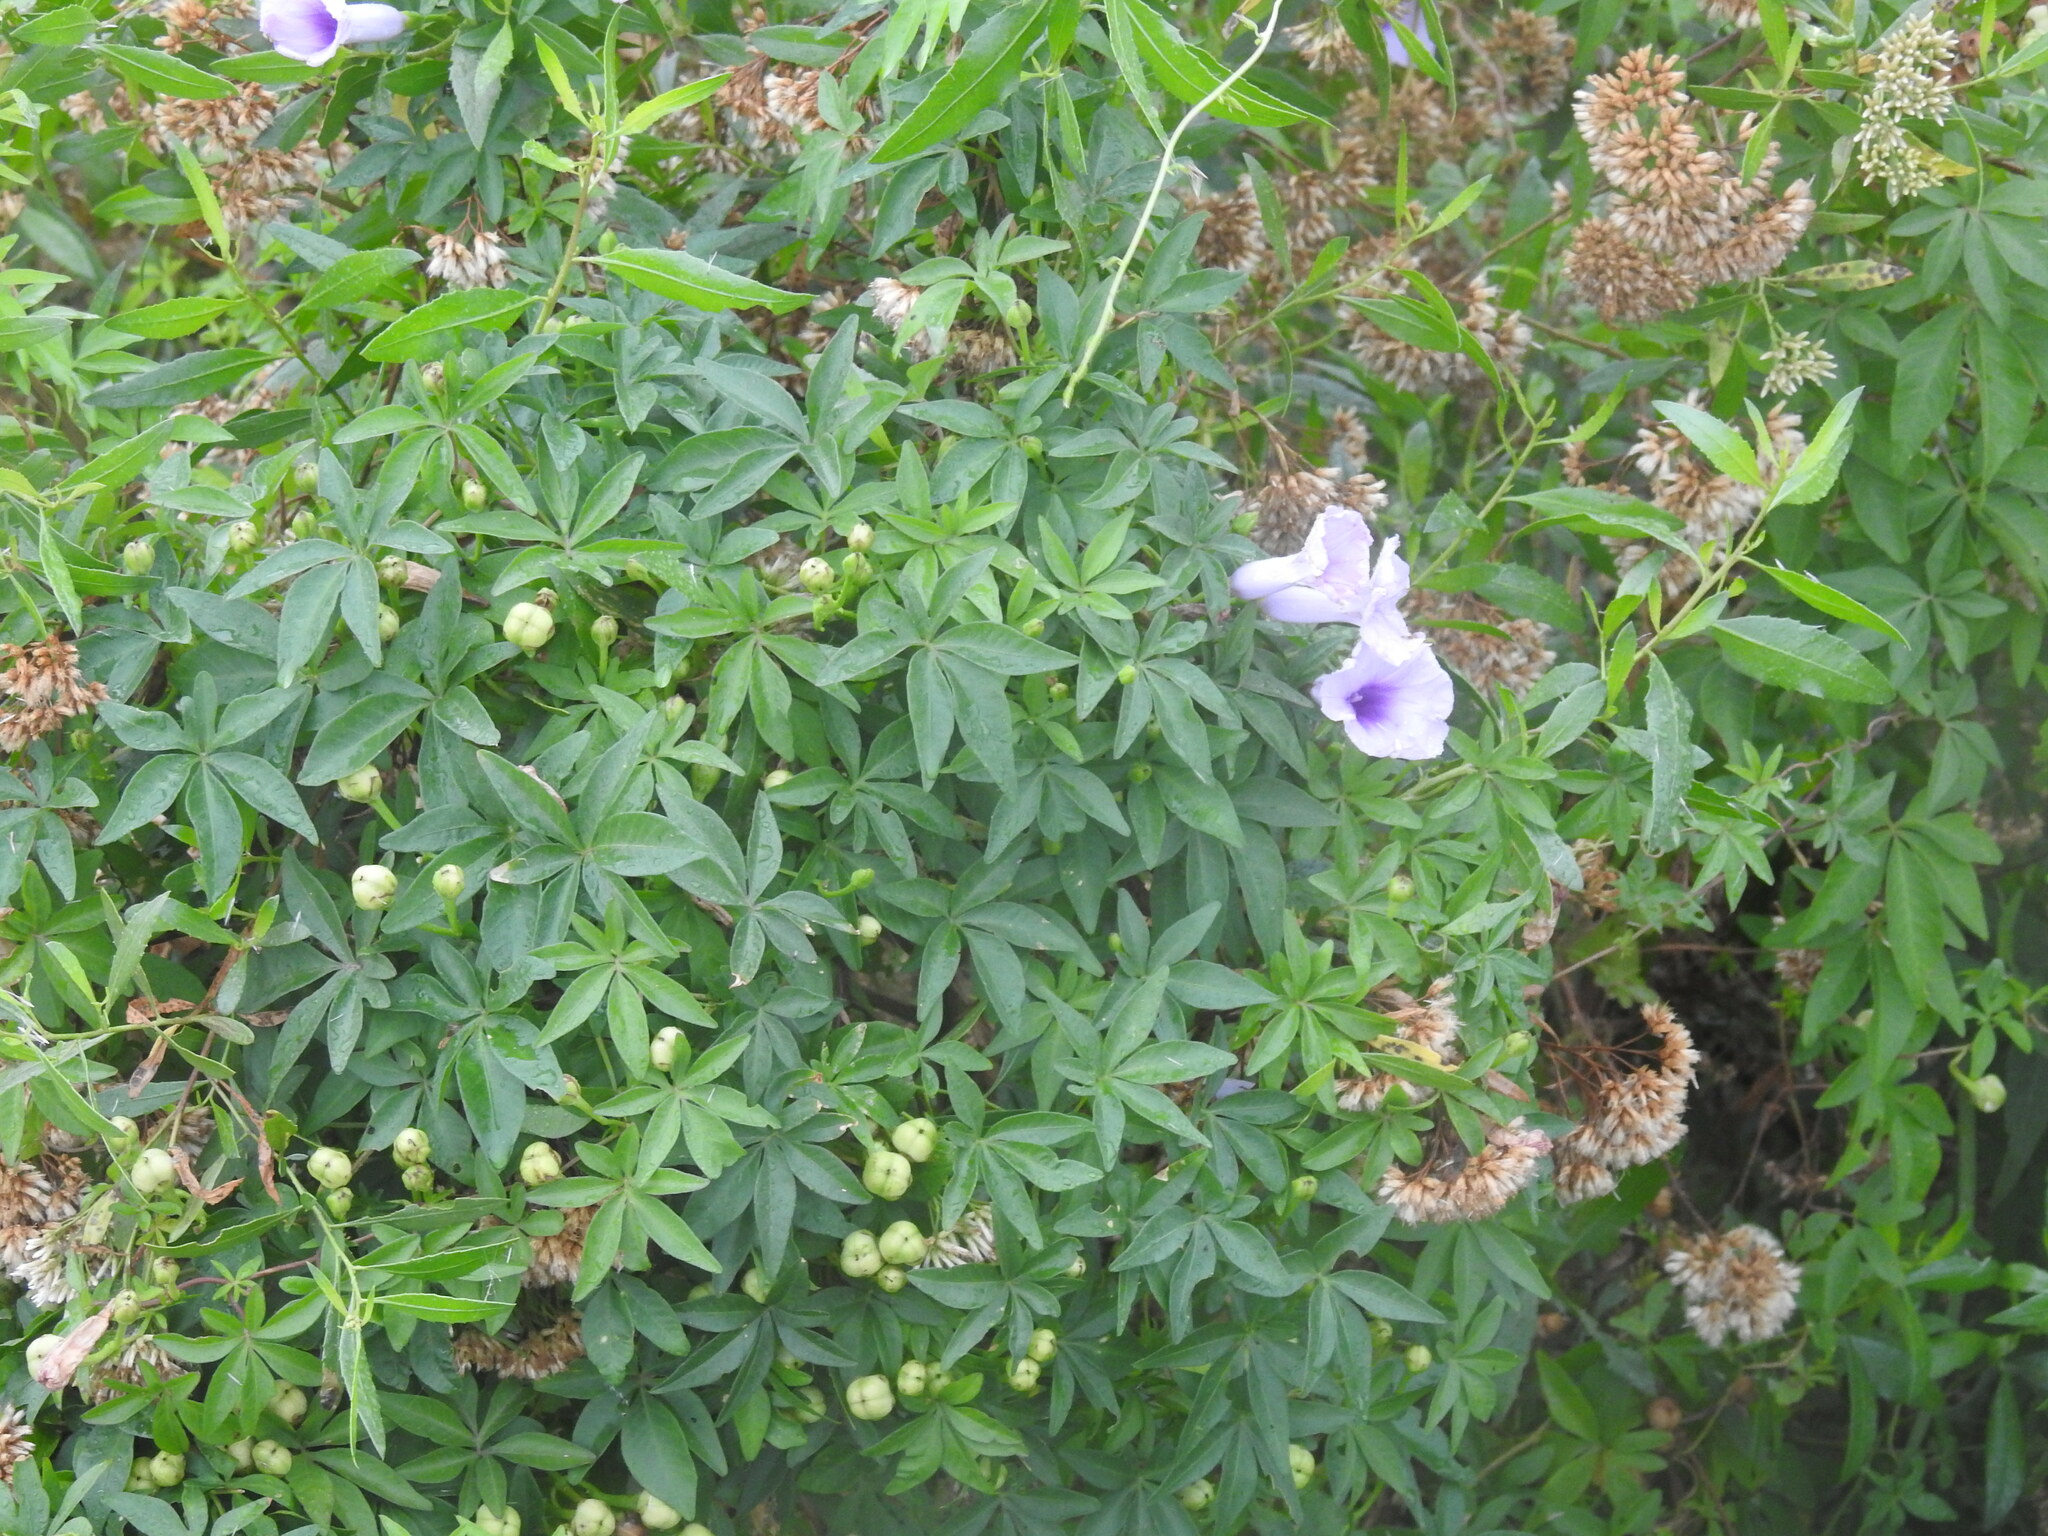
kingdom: Plantae
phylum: Tracheophyta
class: Magnoliopsida
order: Solanales
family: Convolvulaceae
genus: Ipomoea
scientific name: Ipomoea cairica
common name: Mile a minute vine
